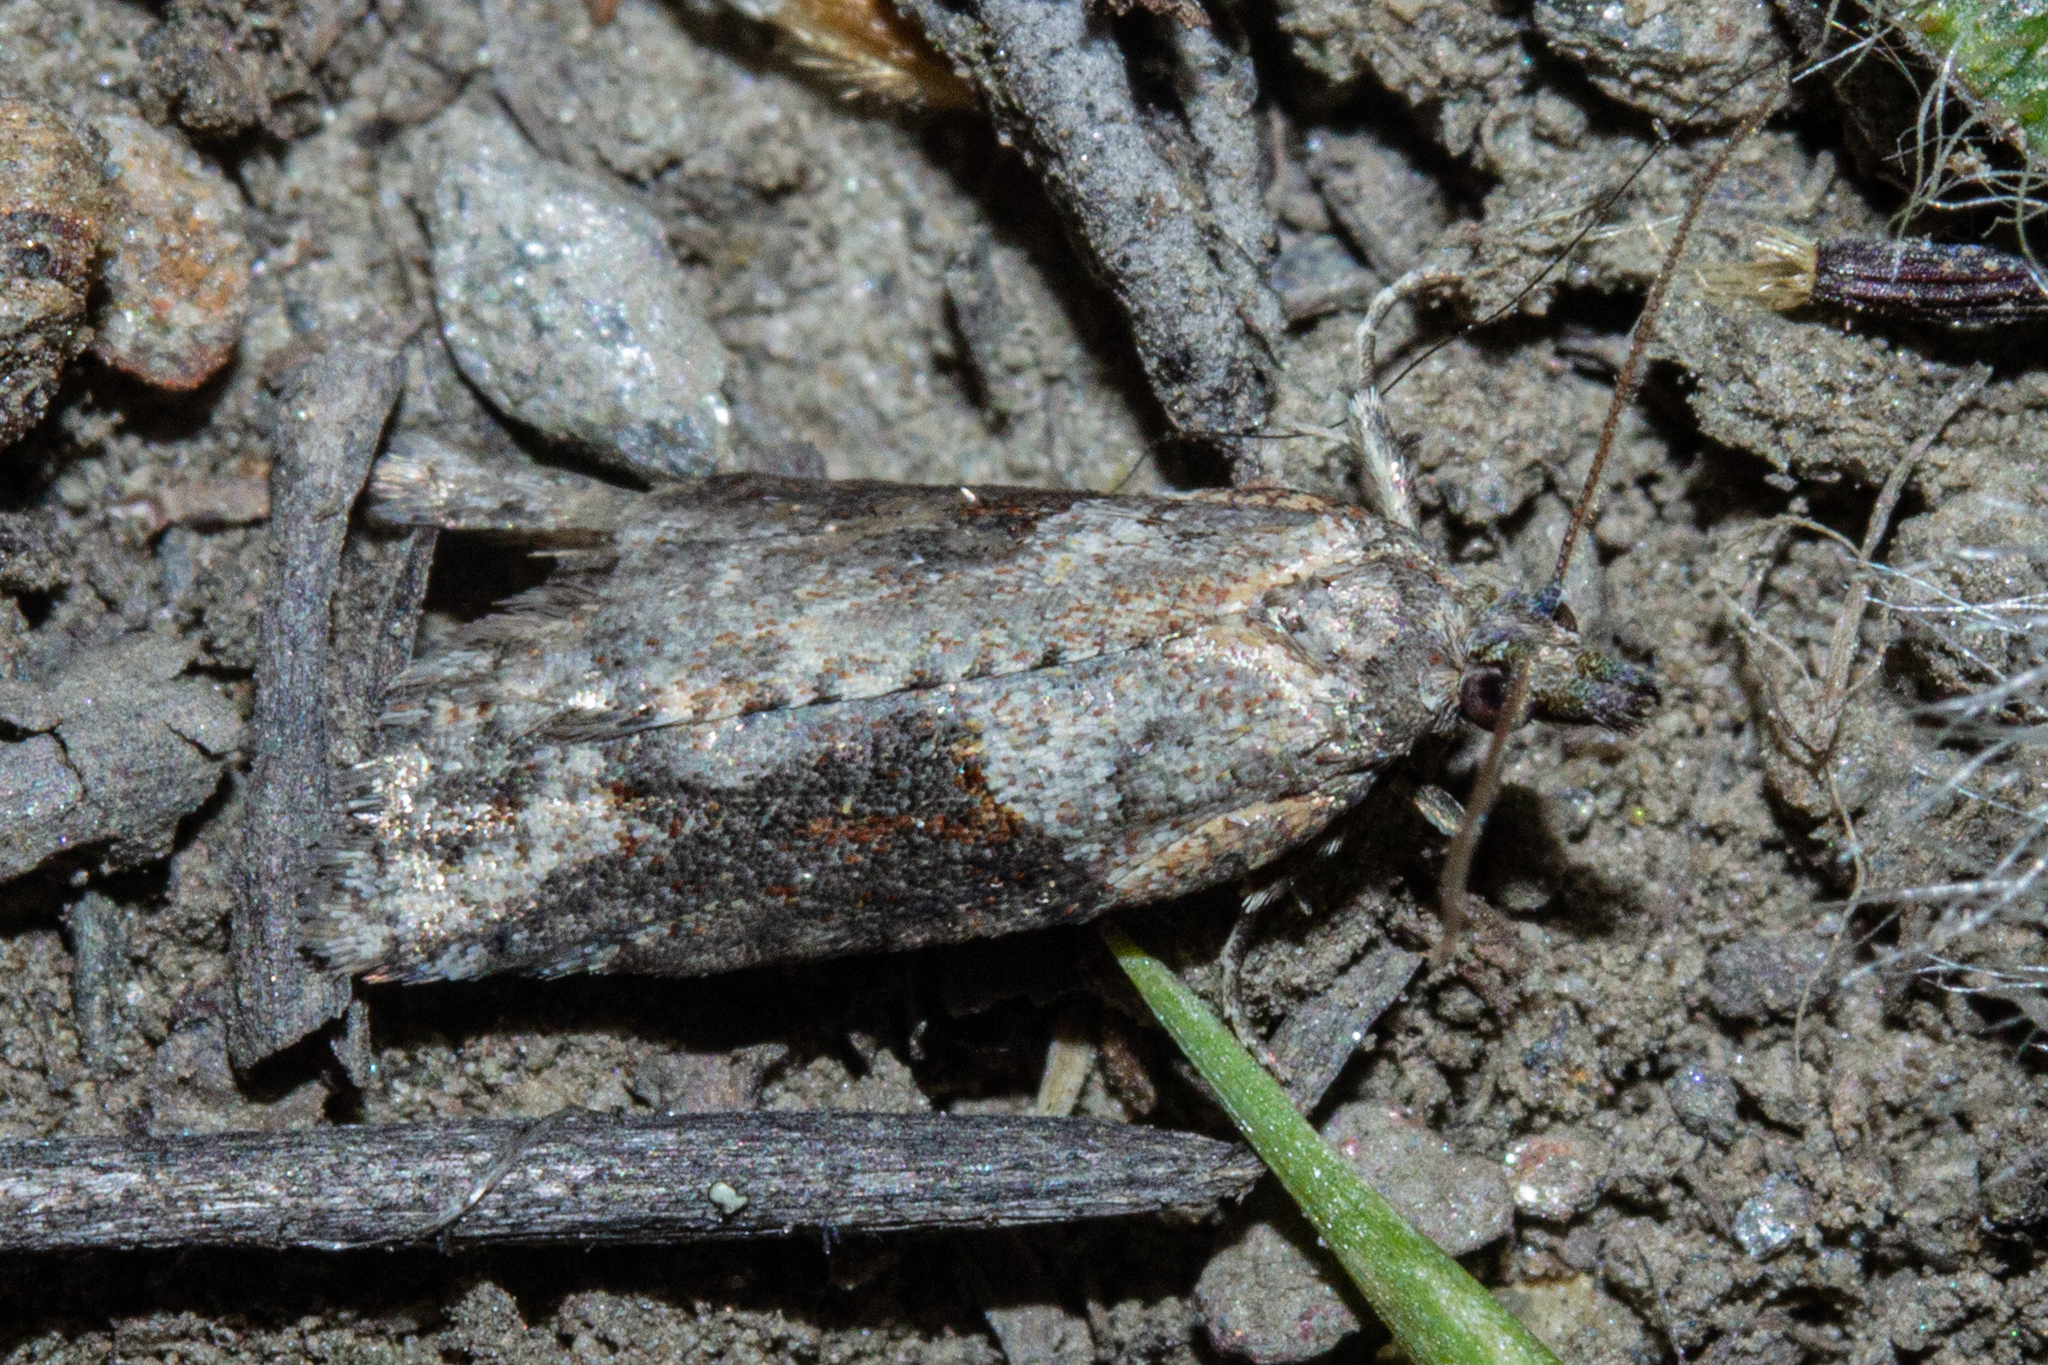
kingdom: Animalia
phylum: Arthropoda
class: Insecta
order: Lepidoptera
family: Tortricidae
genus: Harmologa
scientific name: Harmologa oblongana
